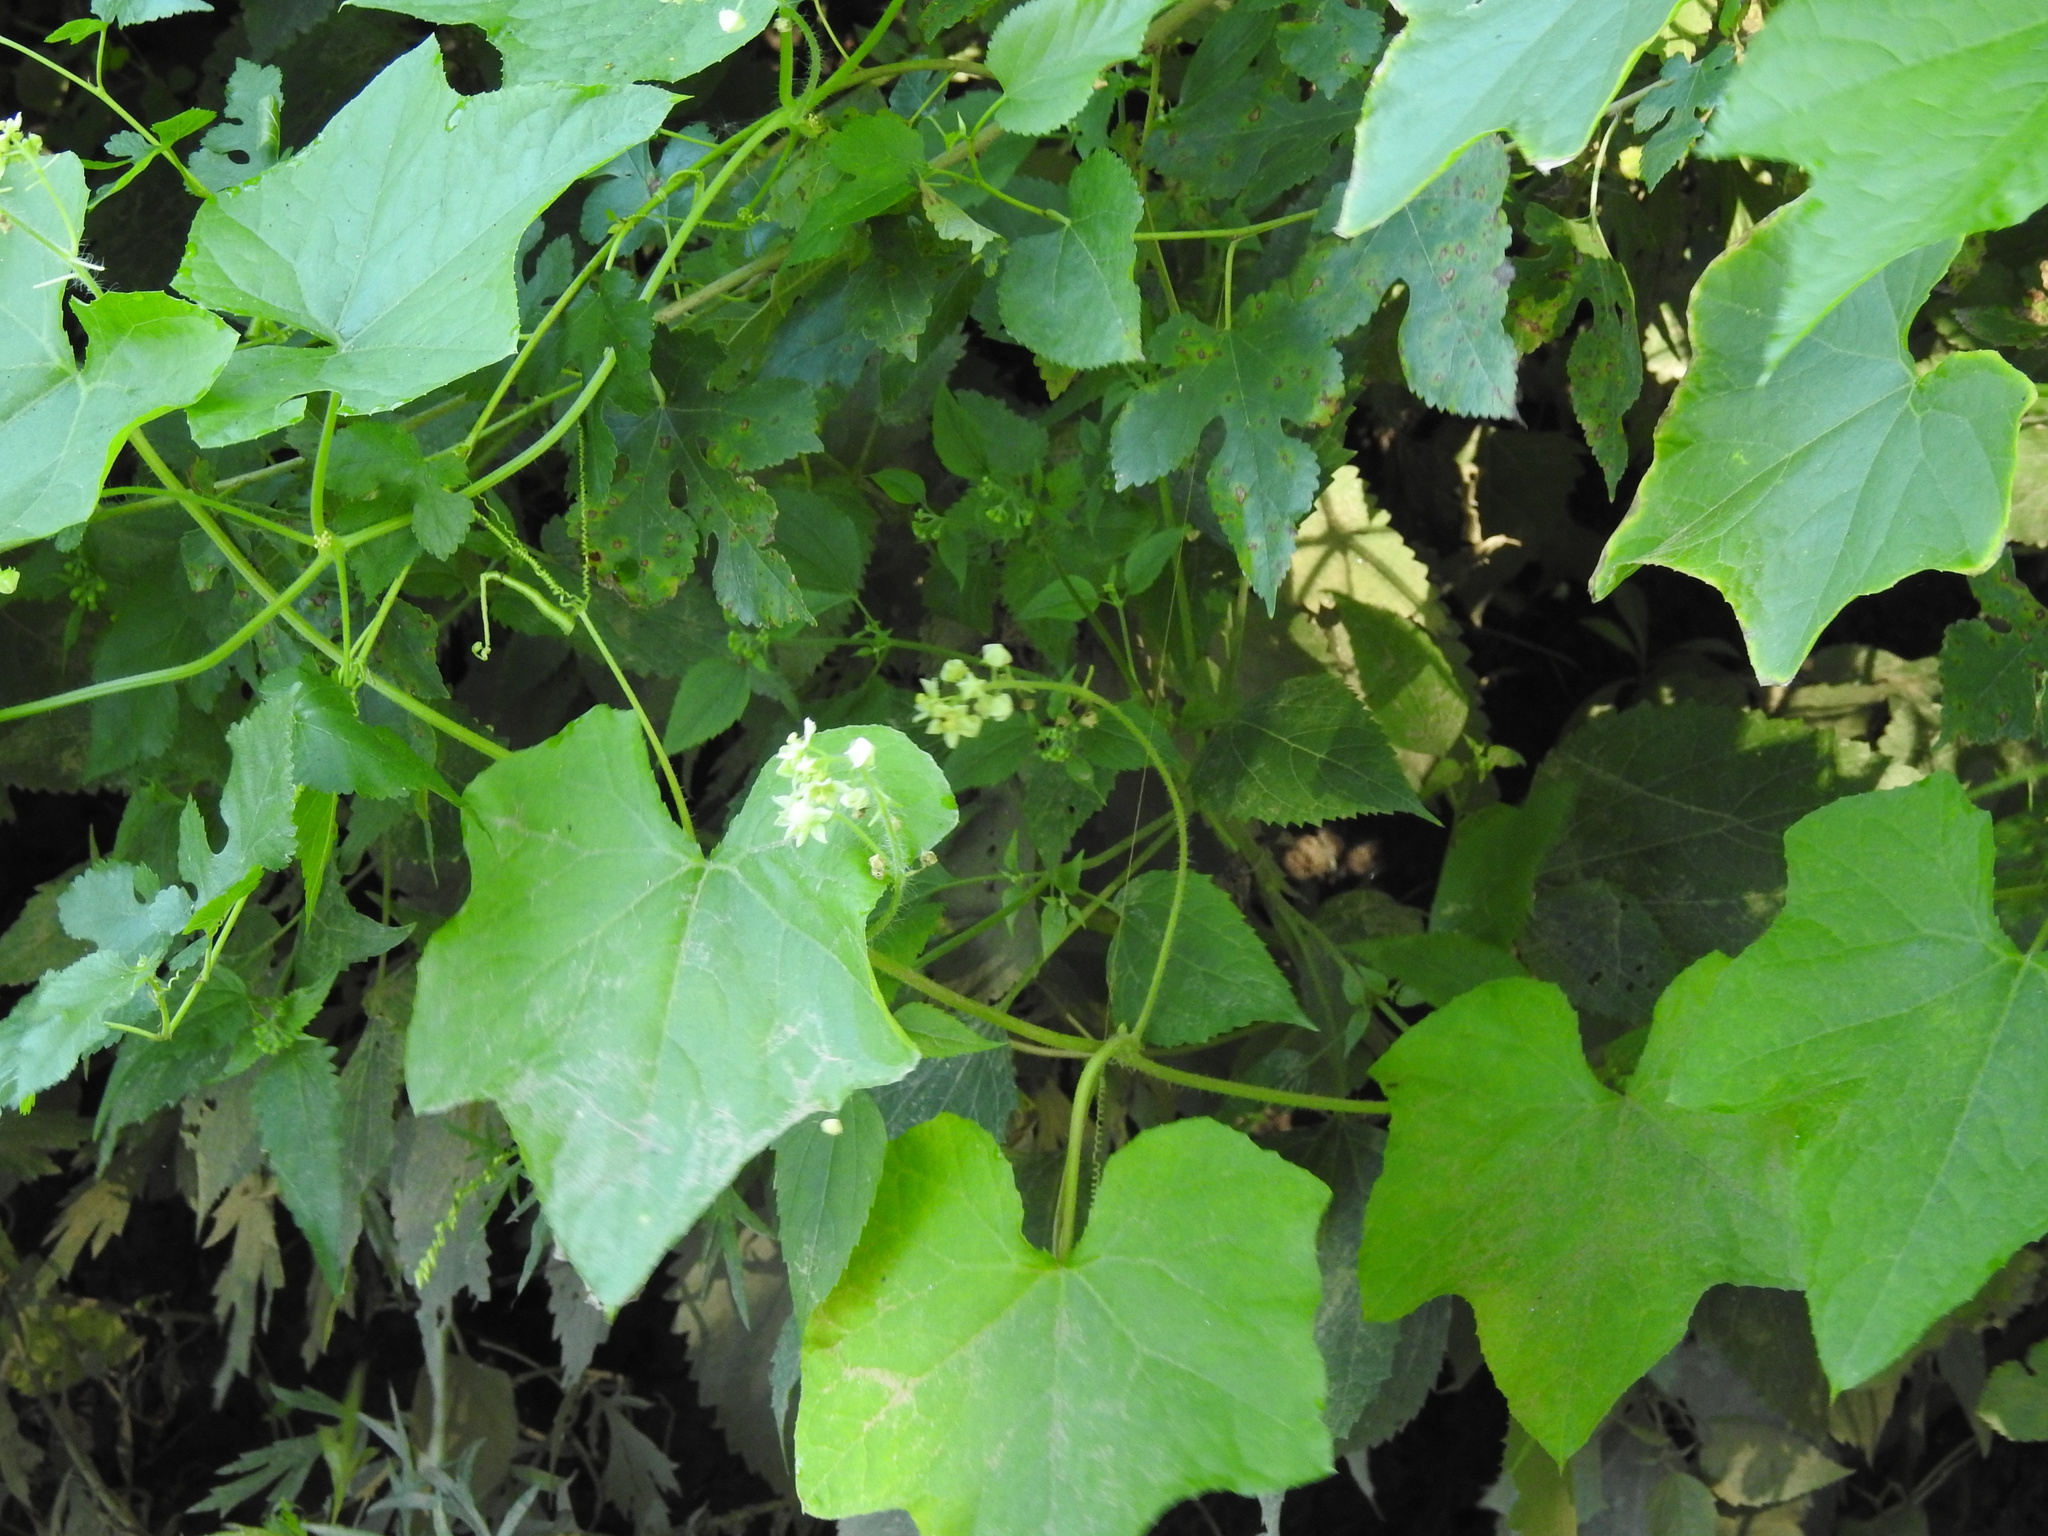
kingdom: Plantae
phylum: Tracheophyta
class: Magnoliopsida
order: Cucurbitales
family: Cucurbitaceae
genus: Sicyos
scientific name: Sicyos angulatus
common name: Angled burr cucumber
